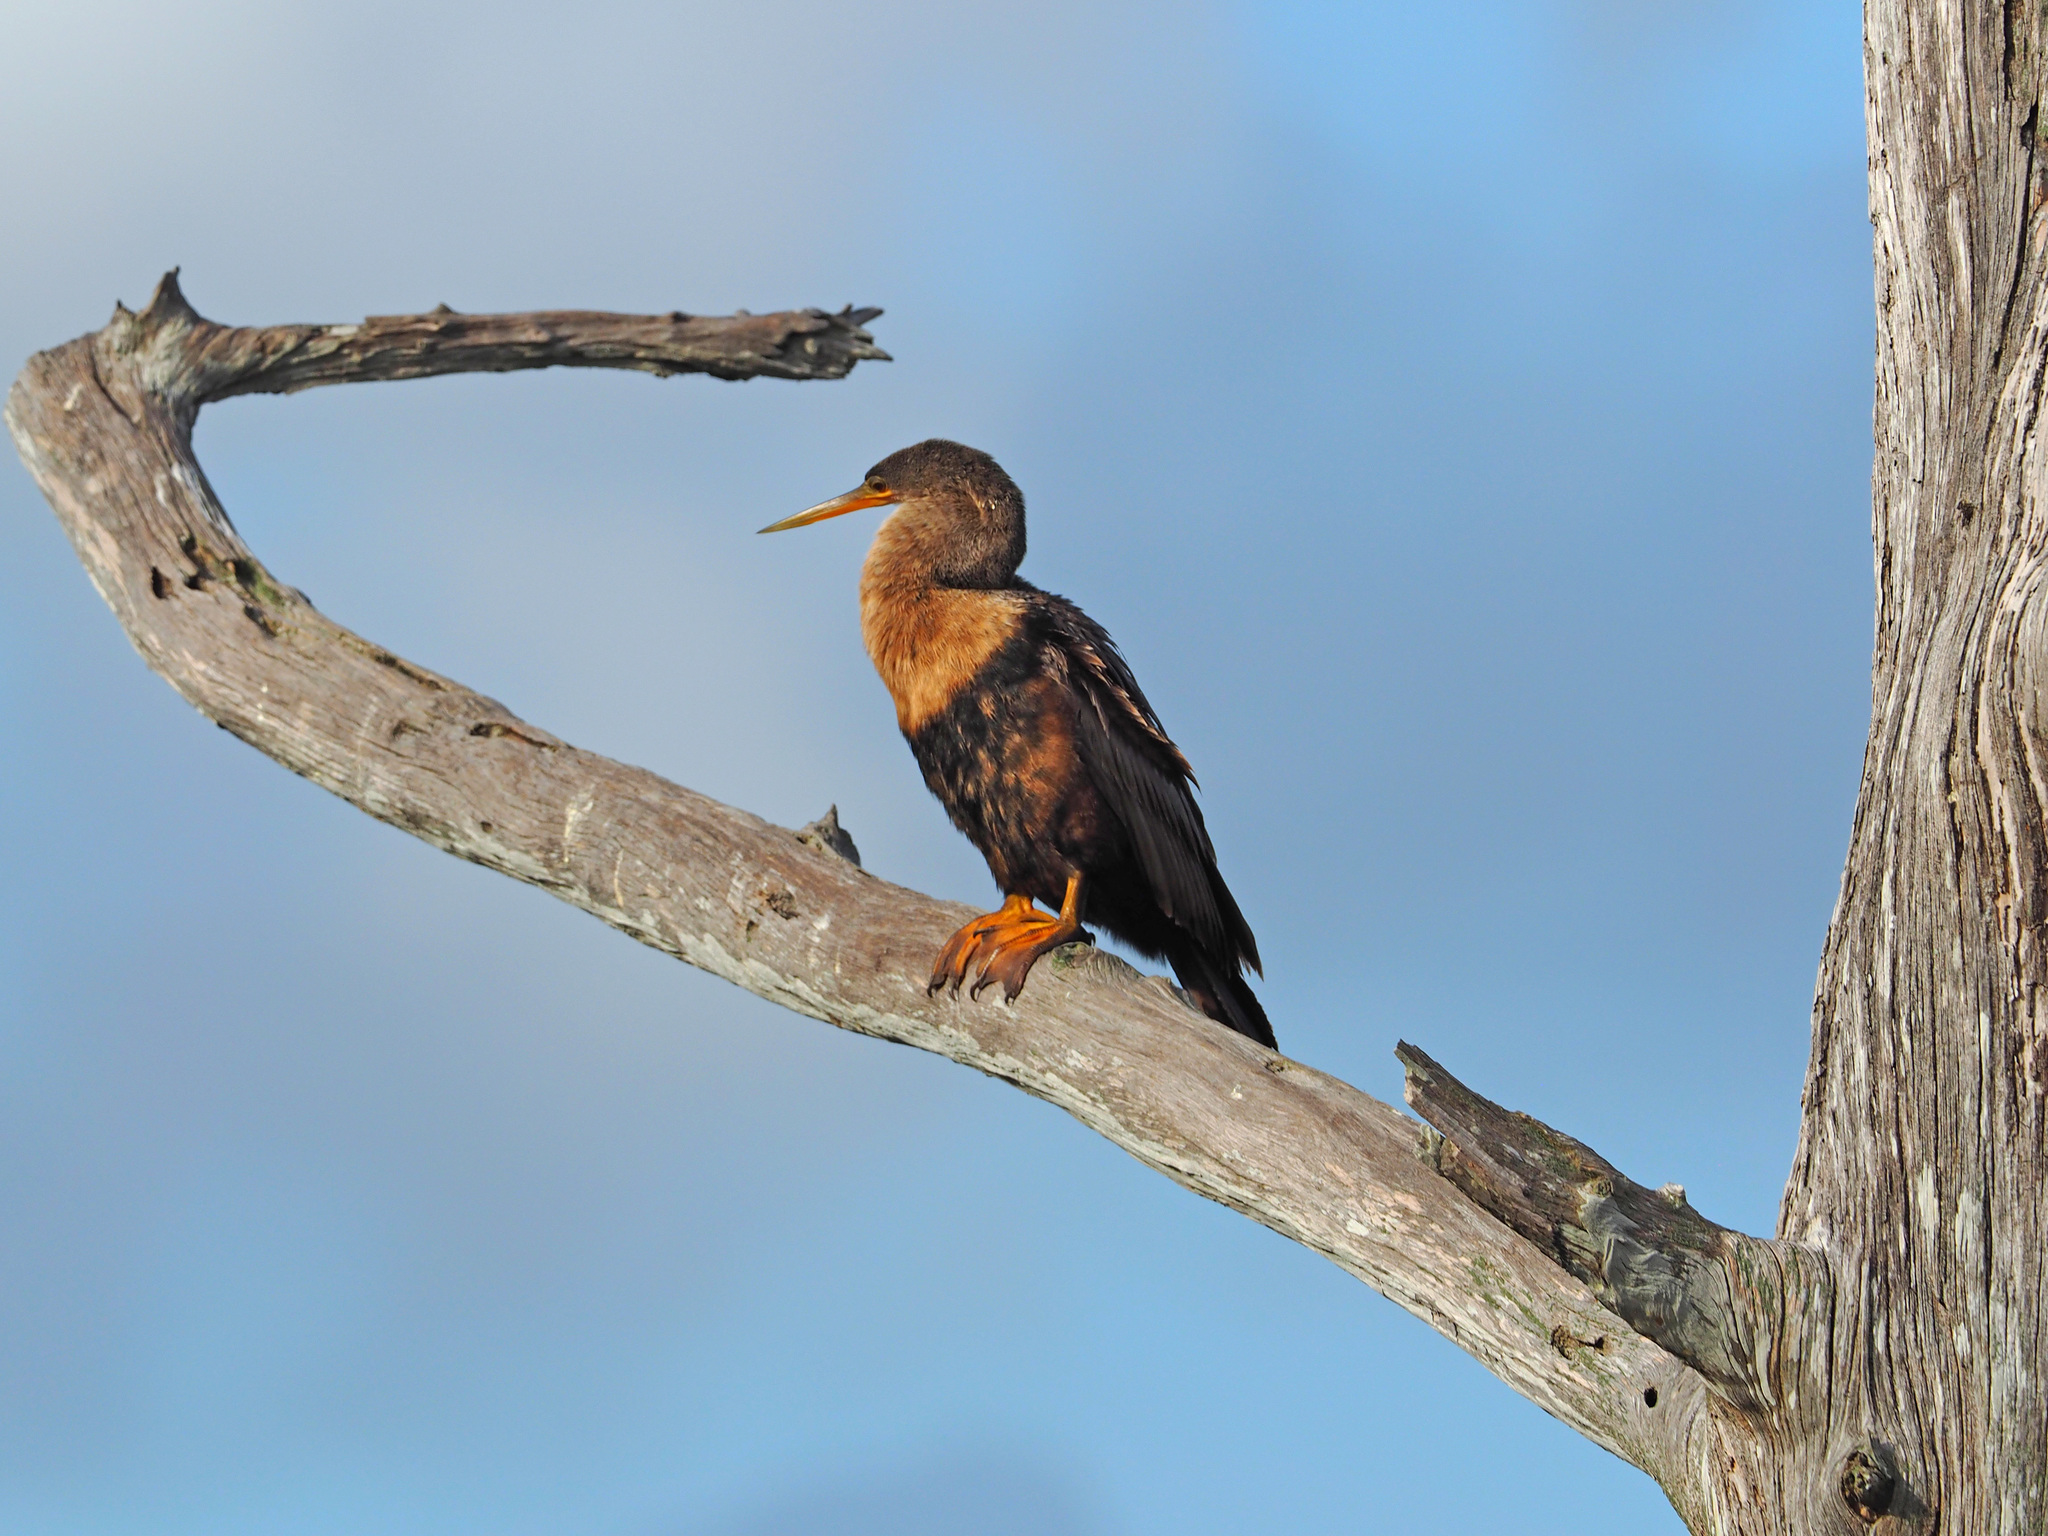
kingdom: Animalia
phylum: Chordata
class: Aves
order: Suliformes
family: Anhingidae
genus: Anhinga
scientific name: Anhinga anhinga
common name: Anhinga
